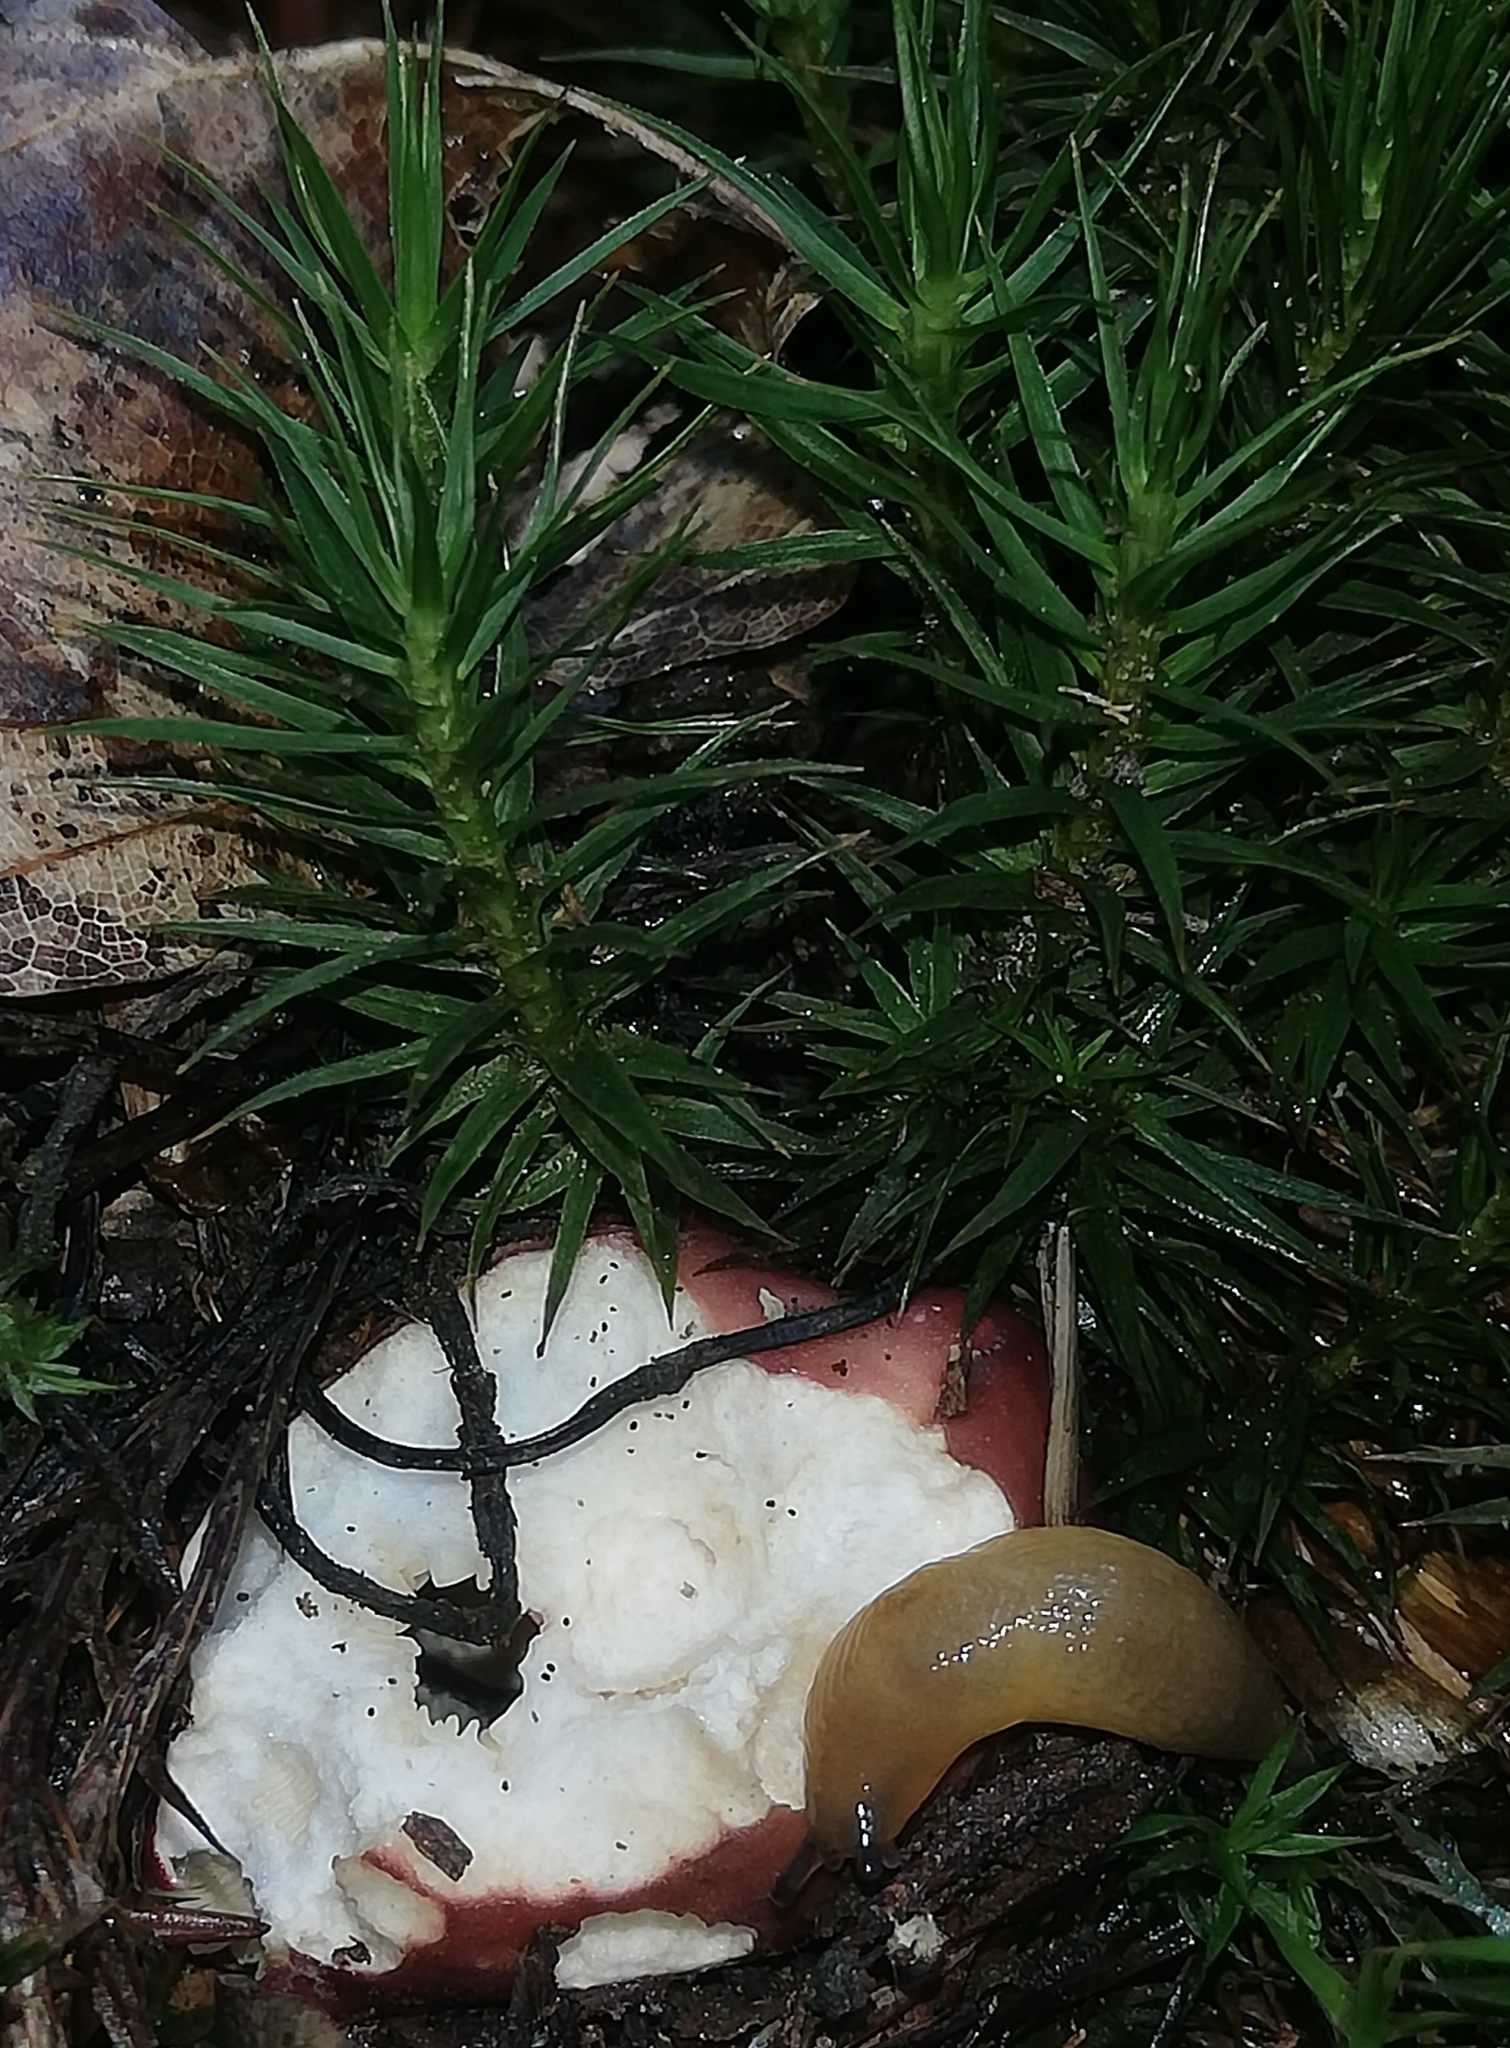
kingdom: Animalia
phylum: Mollusca
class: Gastropoda
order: Stylommatophora
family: Limacidae
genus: Malacolimax
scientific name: Malacolimax tenellus
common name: Lemon slug
